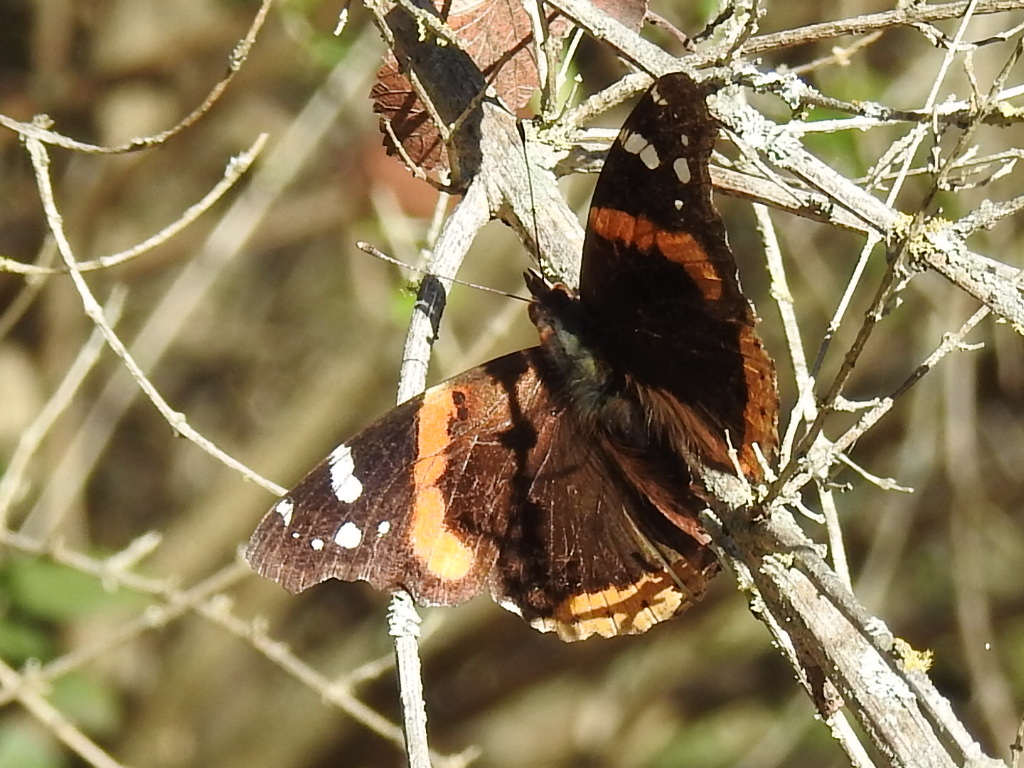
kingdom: Animalia
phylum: Arthropoda
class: Insecta
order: Lepidoptera
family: Nymphalidae
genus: Vanessa
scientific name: Vanessa atalanta
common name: Red admiral
